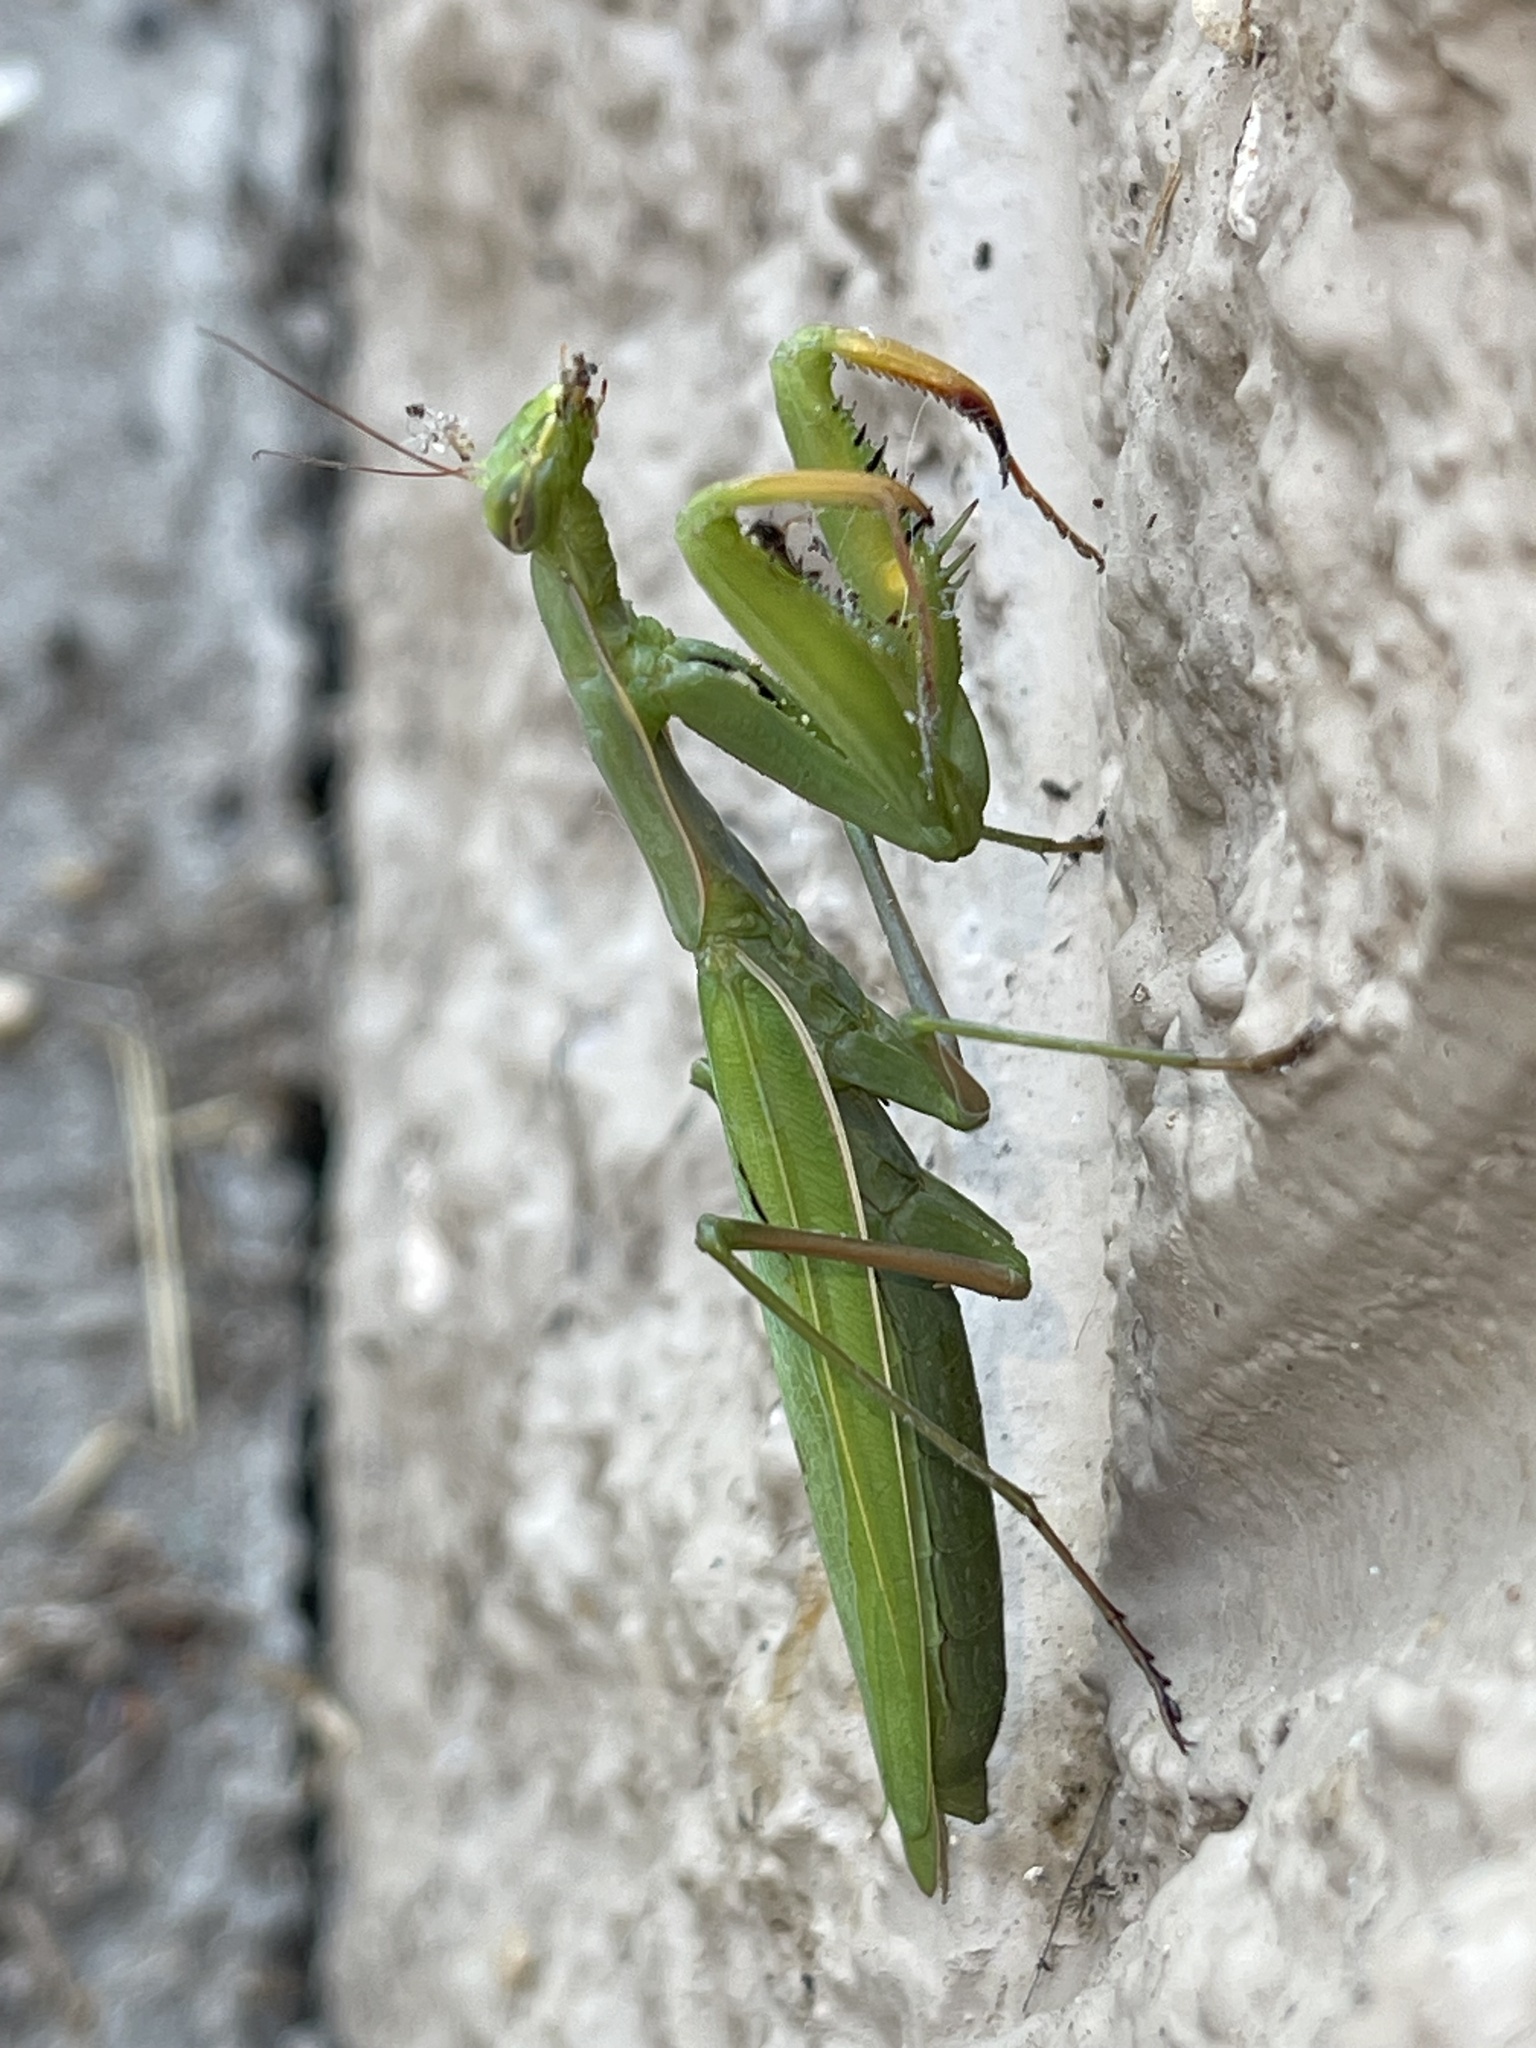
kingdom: Animalia
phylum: Arthropoda
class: Insecta
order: Mantodea
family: Mantidae
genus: Mantis
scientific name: Mantis religiosa
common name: Praying mantis
